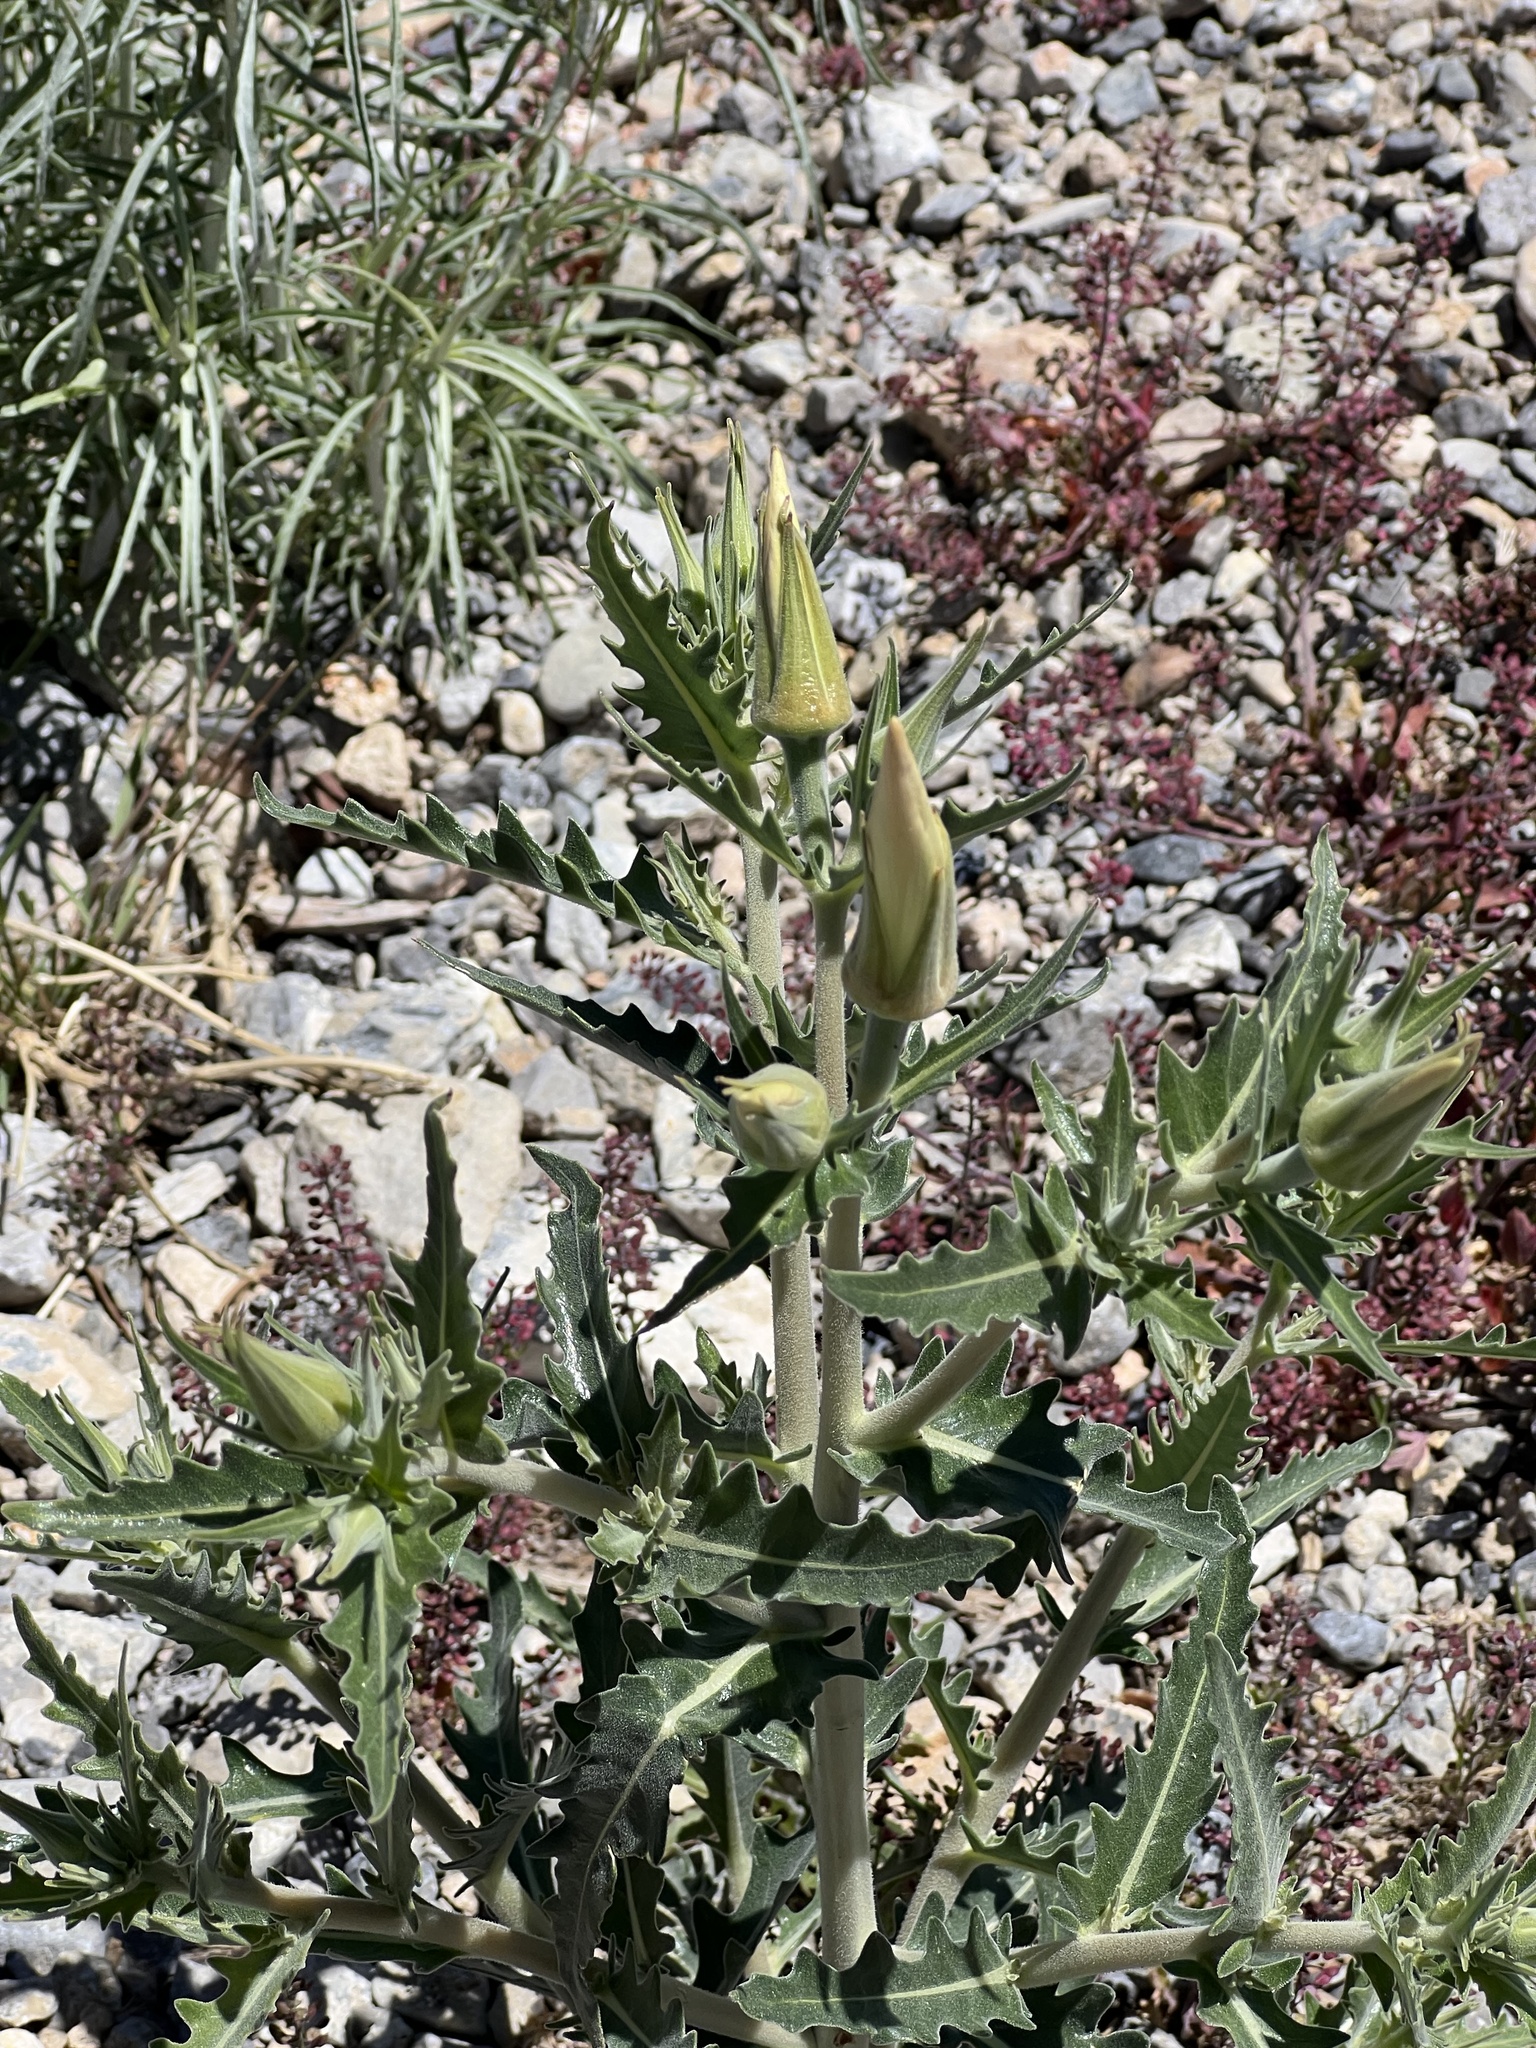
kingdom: Plantae
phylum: Tracheophyta
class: Magnoliopsida
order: Cornales
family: Loasaceae
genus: Mentzelia
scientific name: Mentzelia laevicaulis
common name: Smooth-stem blazingstar
